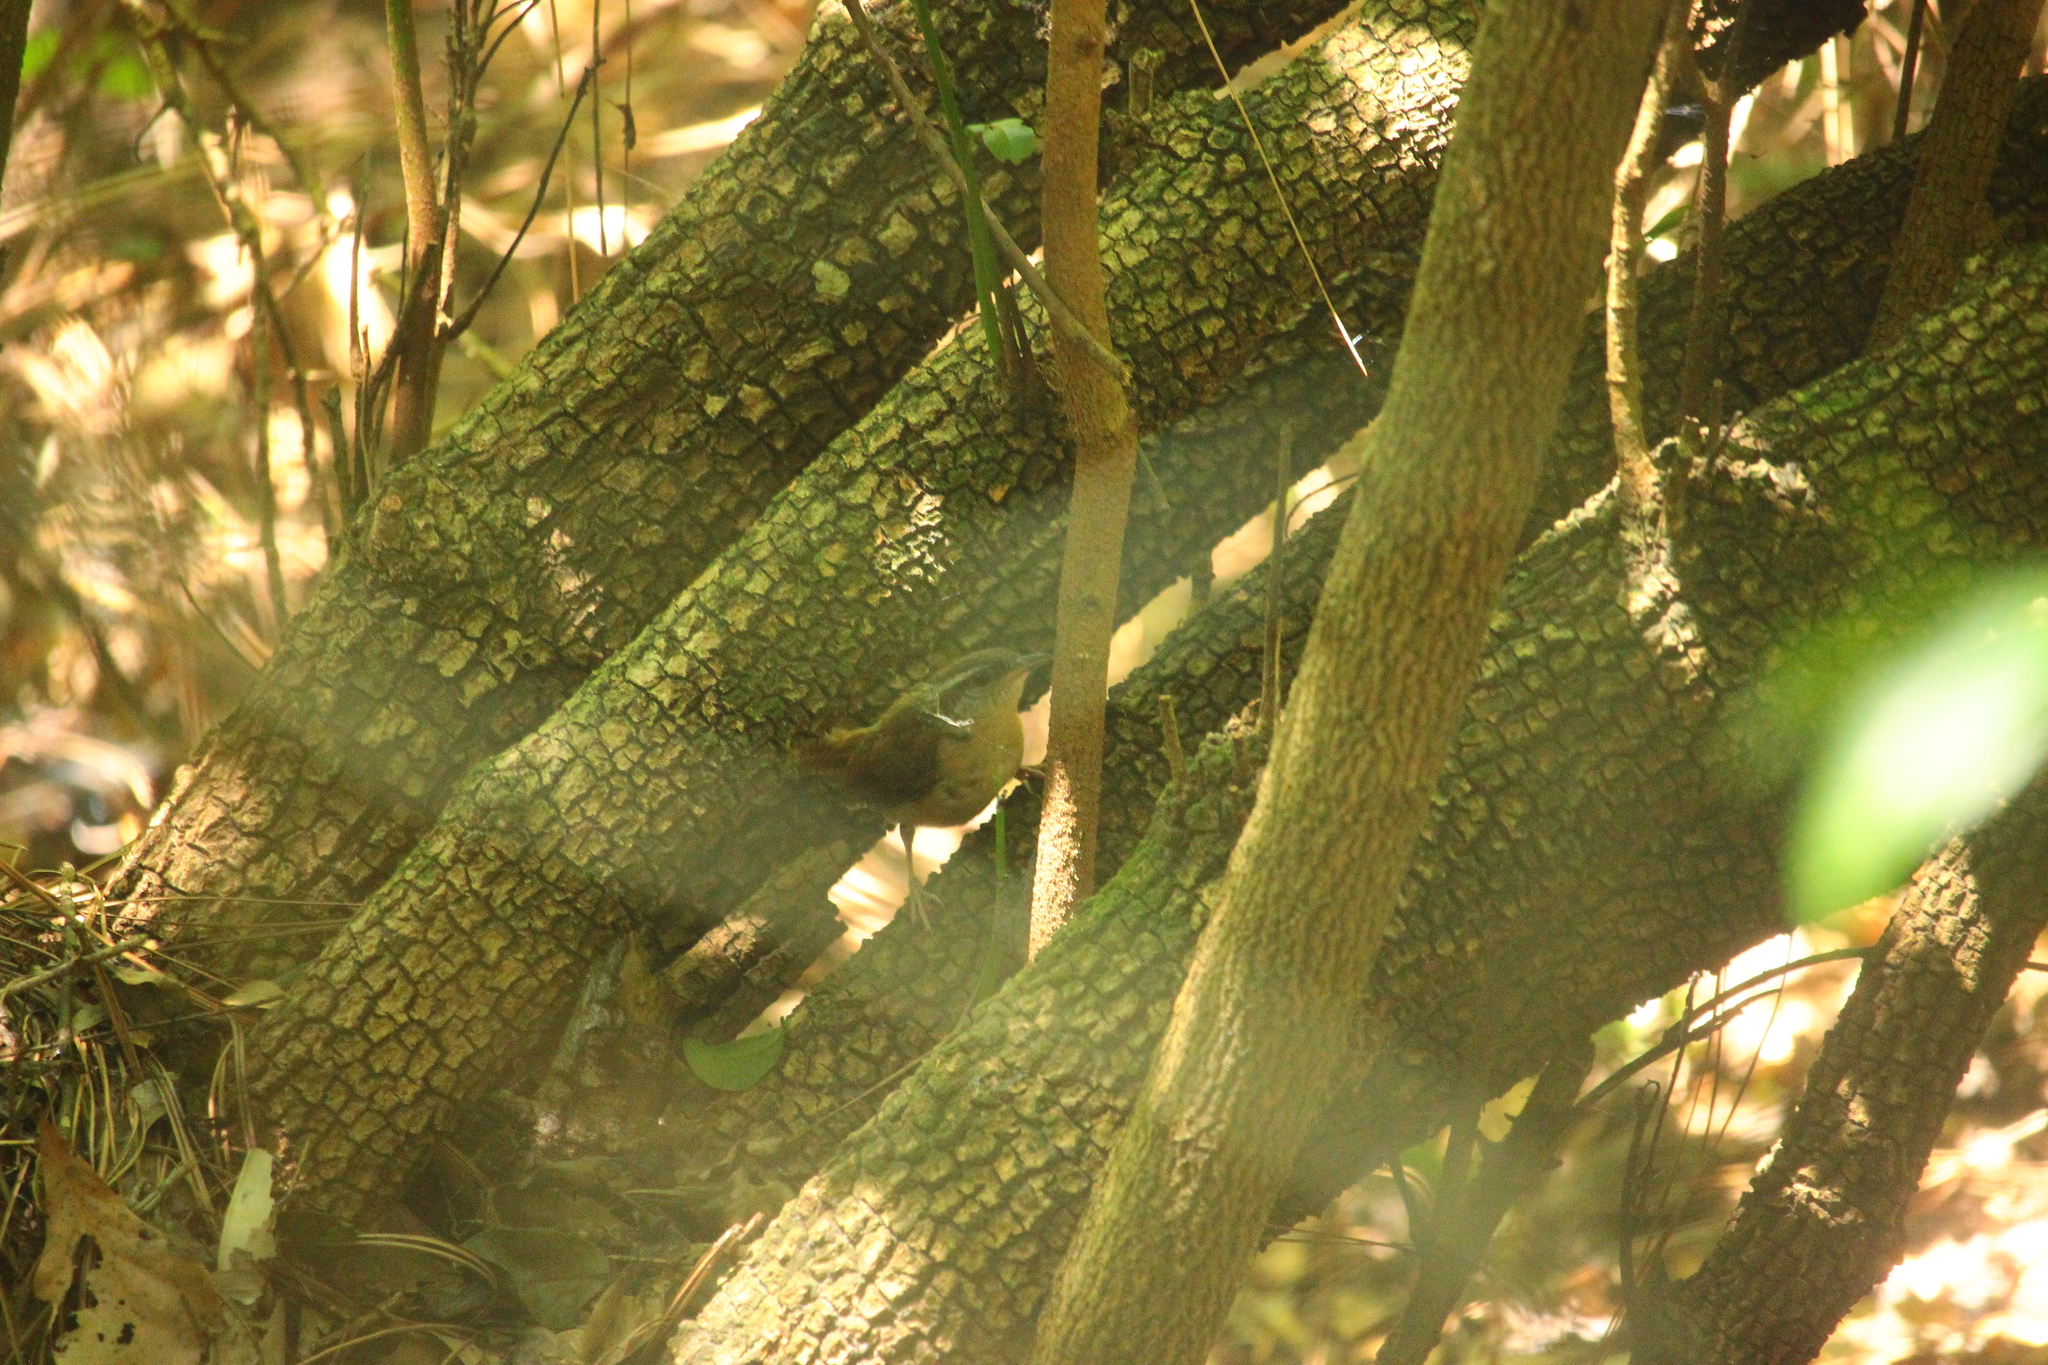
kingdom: Animalia
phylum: Chordata
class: Aves
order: Passeriformes
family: Troglodytidae
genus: Thryothorus
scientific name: Thryothorus ludovicianus
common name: Carolina wren
